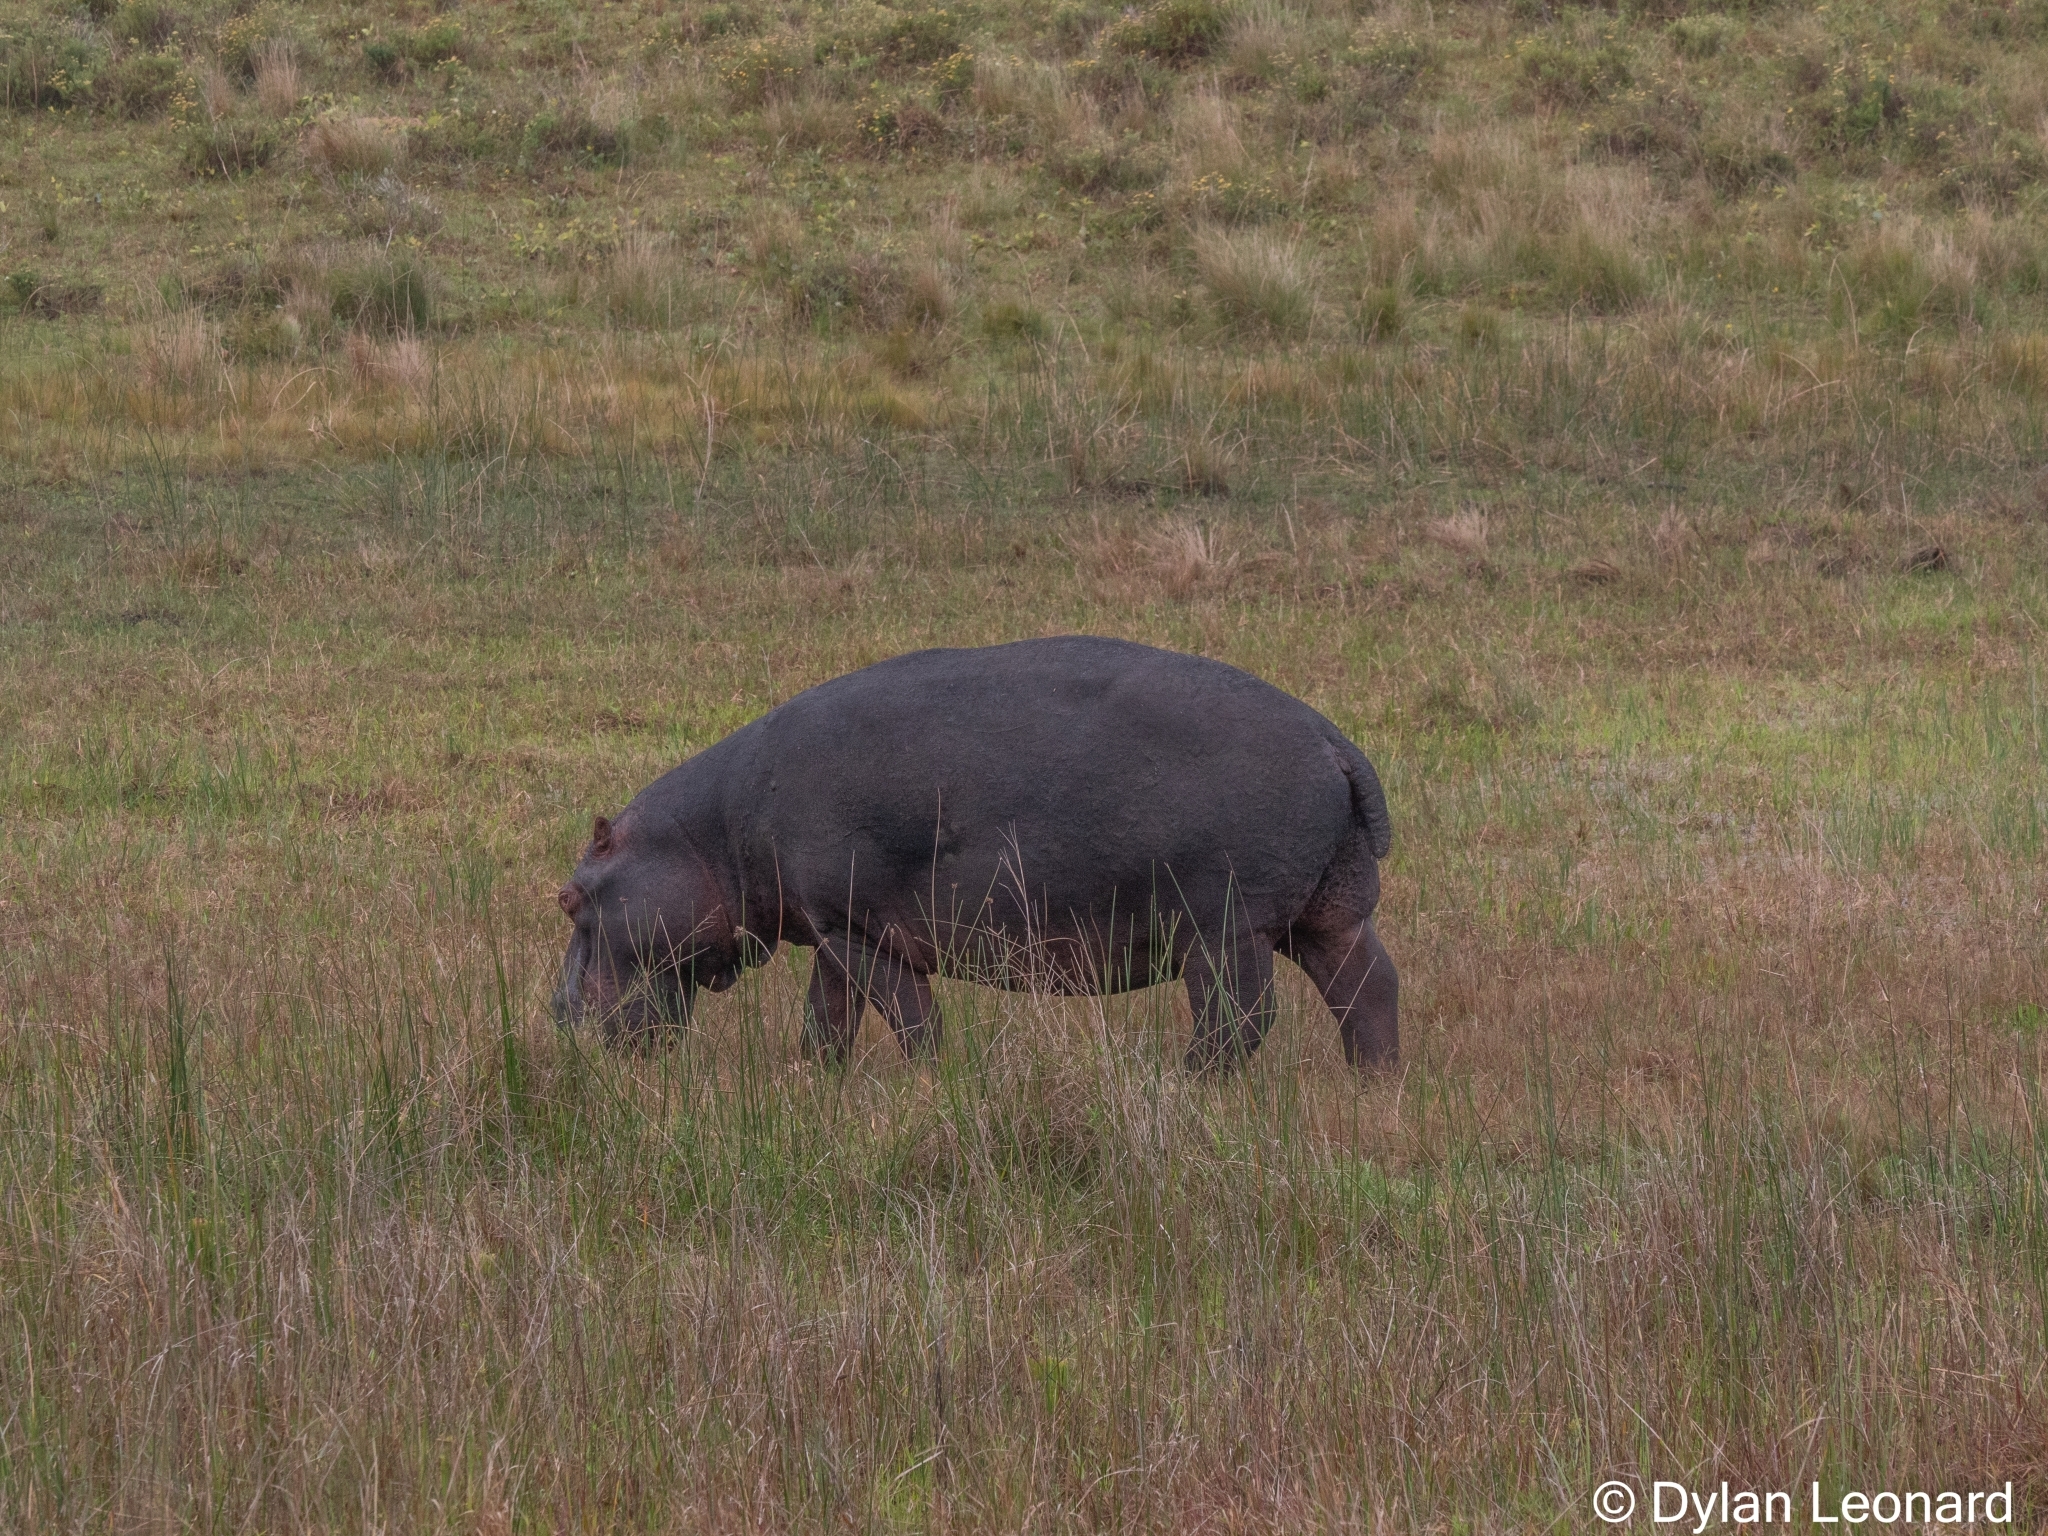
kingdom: Animalia
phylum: Chordata
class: Mammalia
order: Artiodactyla
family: Hippopotamidae
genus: Hippopotamus
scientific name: Hippopotamus amphibius
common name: Common hippopotamus
